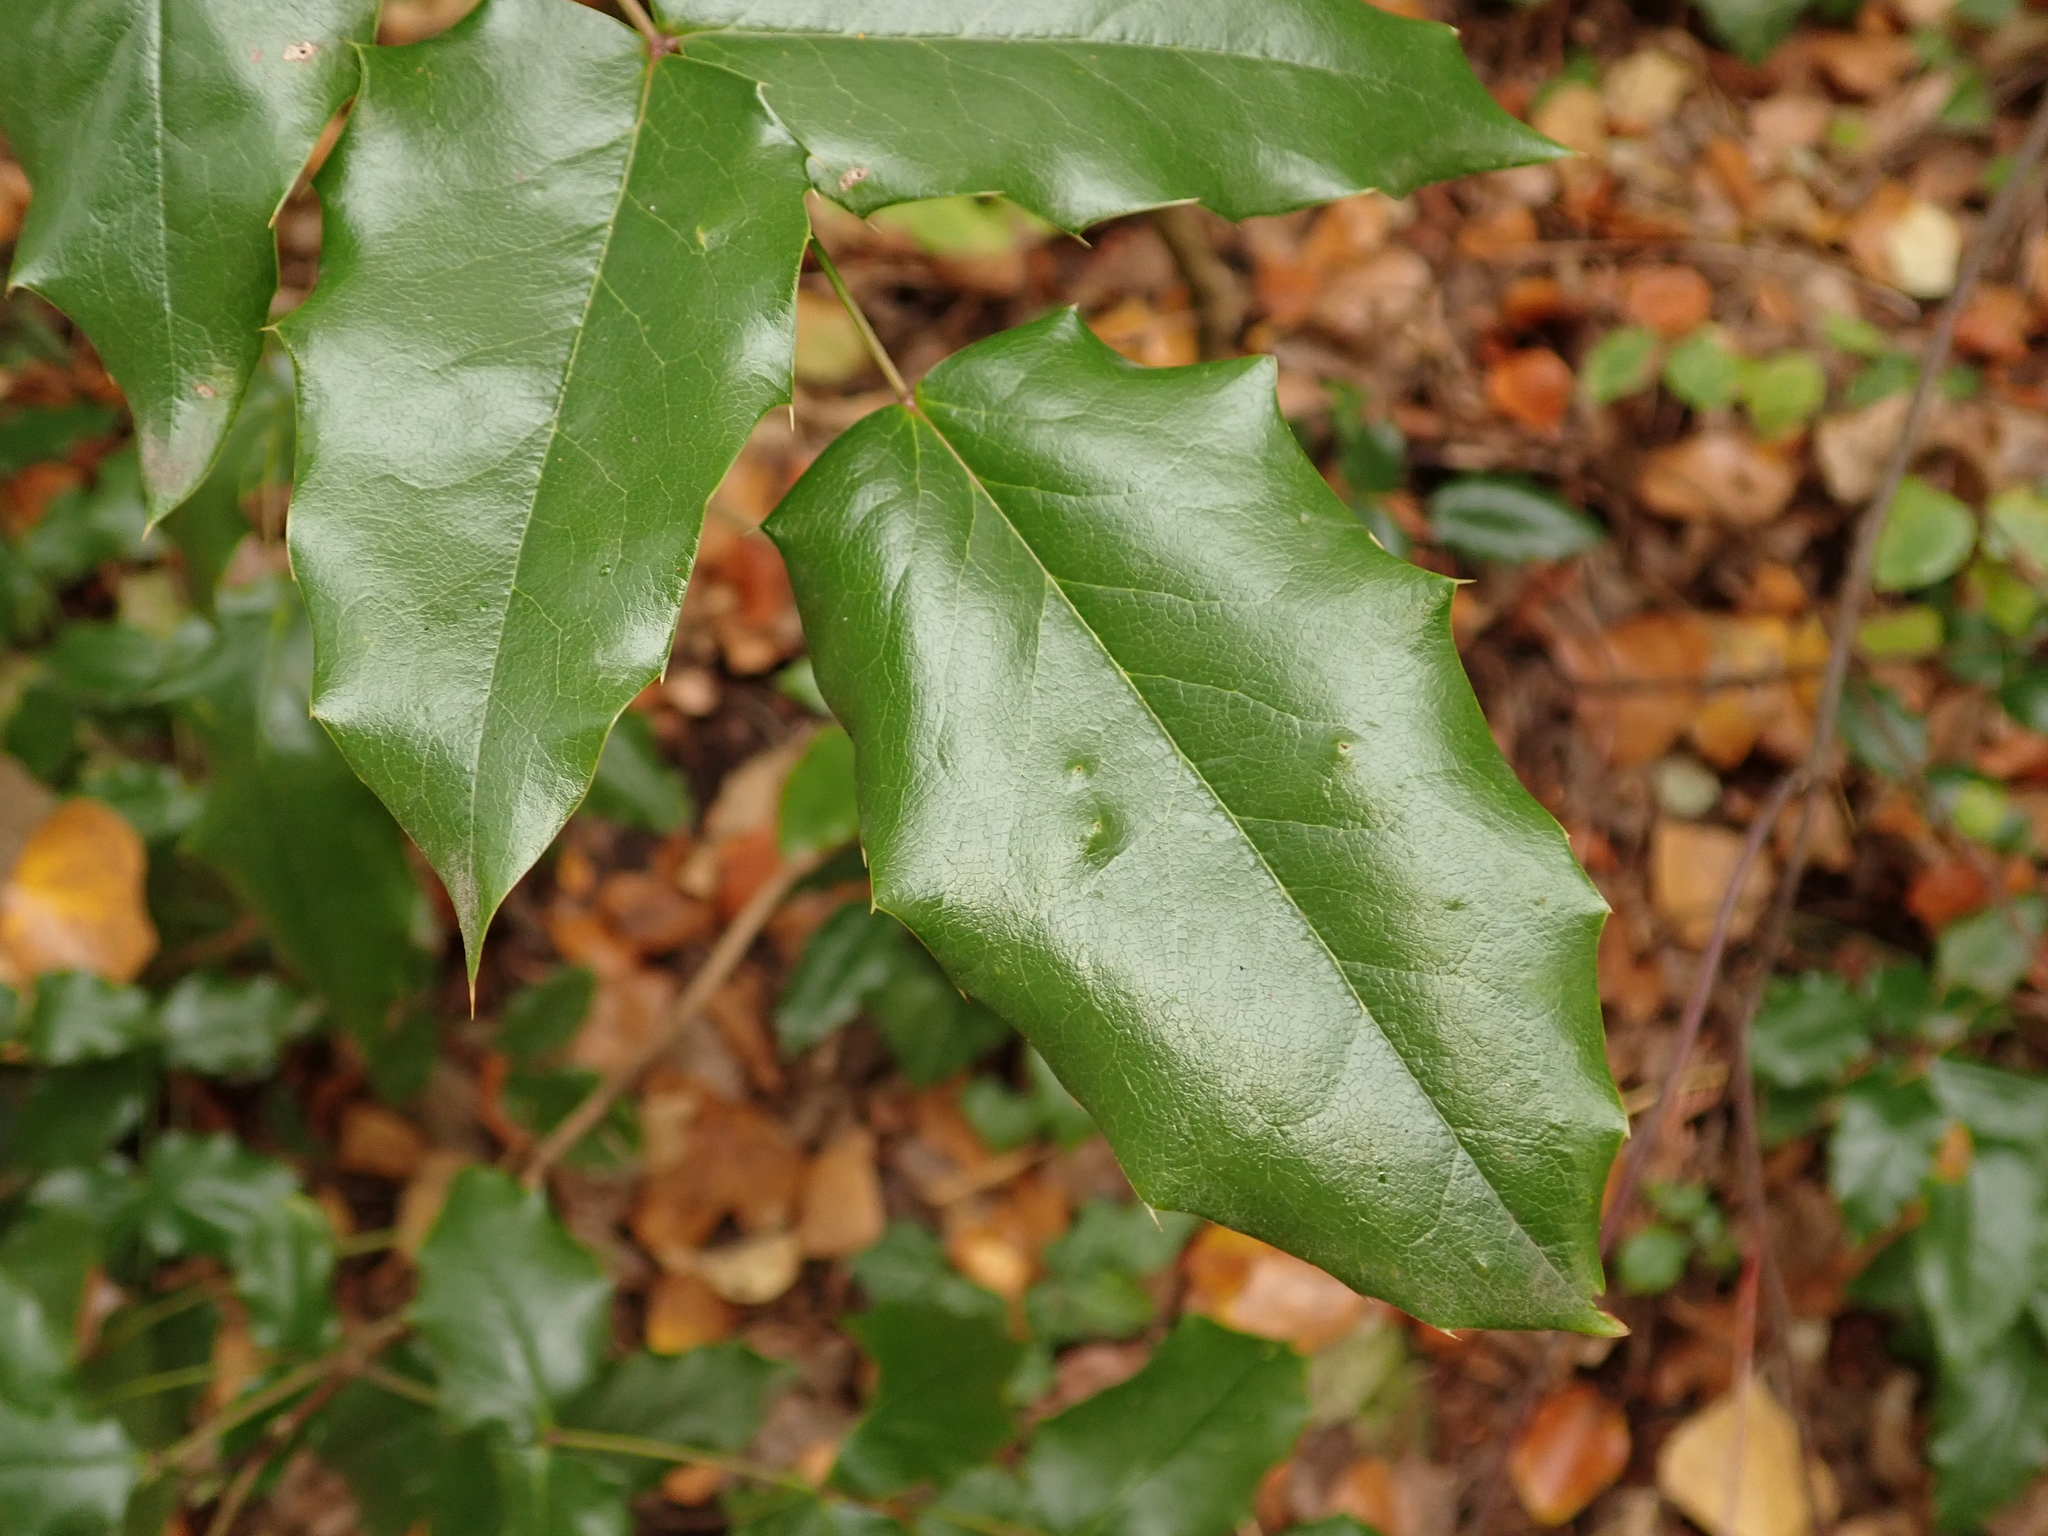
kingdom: Plantae
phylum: Tracheophyta
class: Magnoliopsida
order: Ranunculales
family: Berberidaceae
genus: Mahonia
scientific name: Mahonia aquifolium
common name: Oregon-grape
